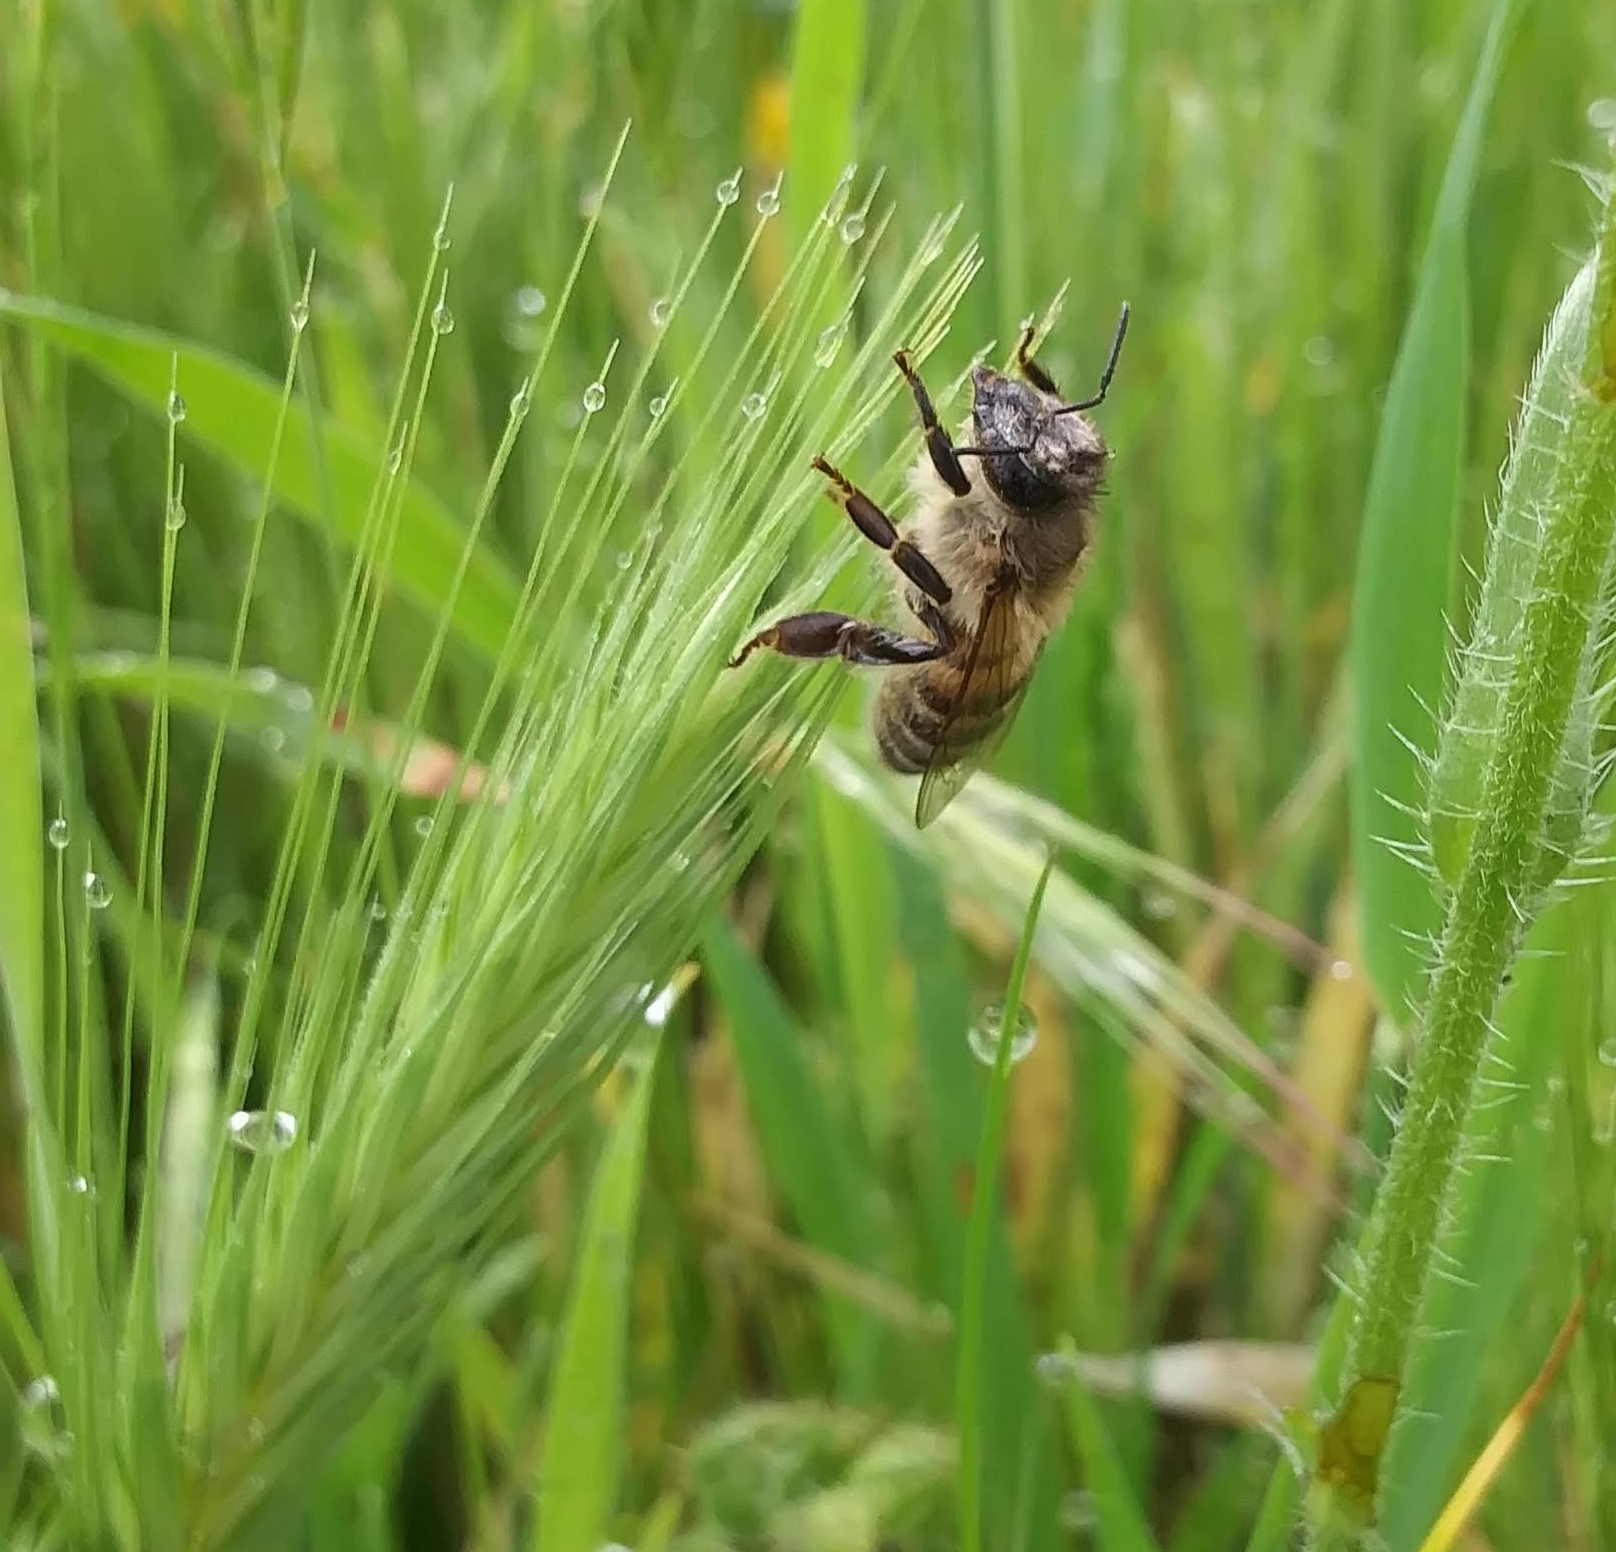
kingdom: Animalia
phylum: Arthropoda
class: Insecta
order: Hymenoptera
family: Apidae
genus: Apis
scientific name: Apis mellifera
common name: Honey bee
